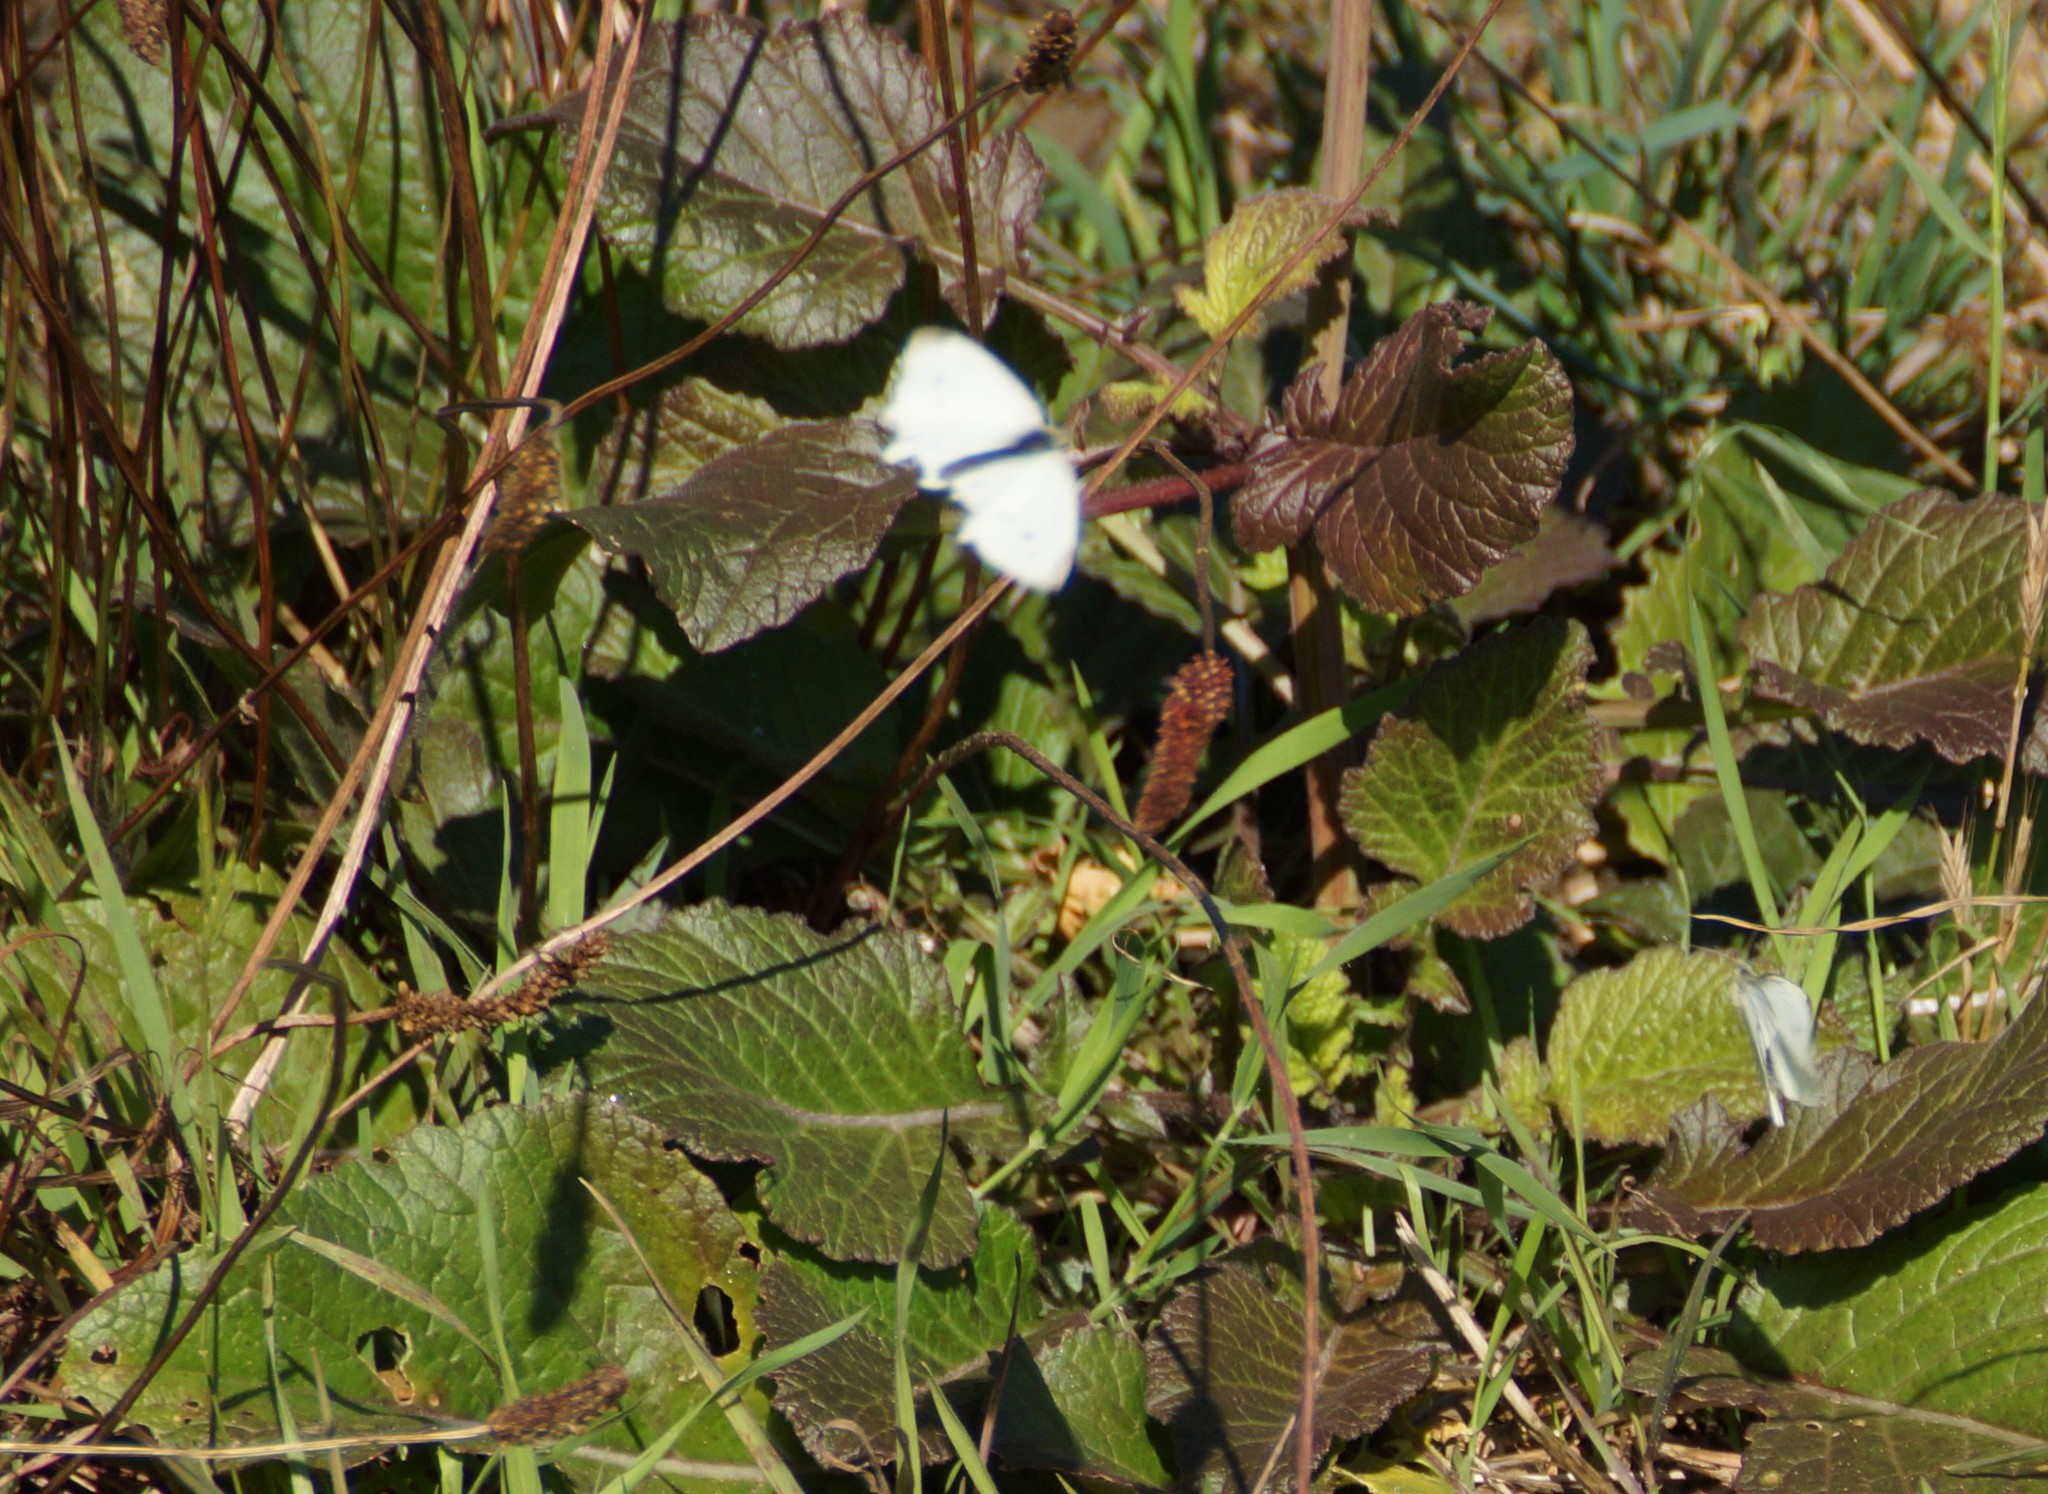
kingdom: Animalia
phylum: Arthropoda
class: Insecta
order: Lepidoptera
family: Pieridae
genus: Pieris
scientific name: Pieris rapae
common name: Small white
